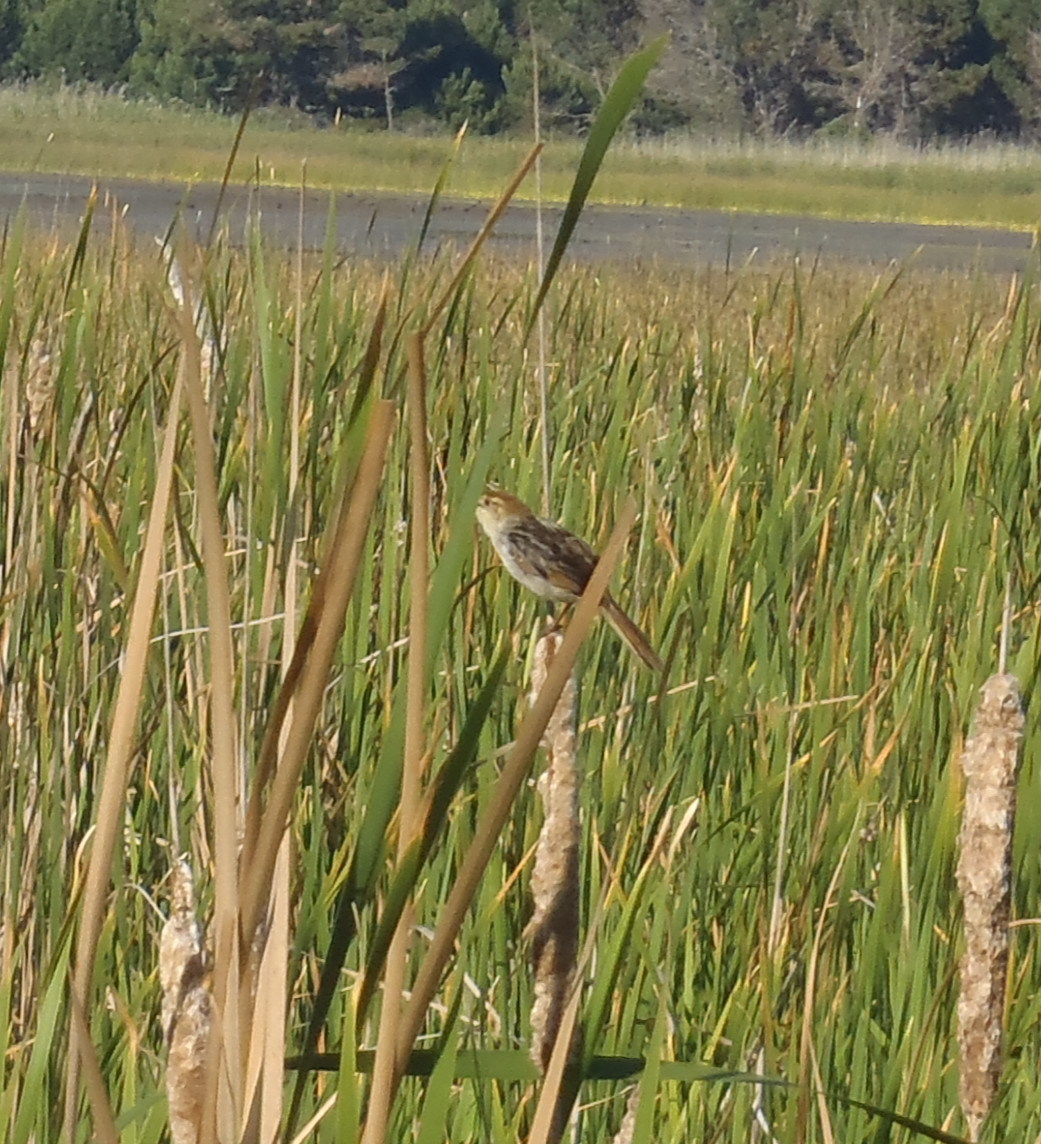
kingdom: Animalia
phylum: Chordata
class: Aves
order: Passeriformes
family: Cisticolidae
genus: Cisticola
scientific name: Cisticola tinniens
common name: Levaillant's cisticola
